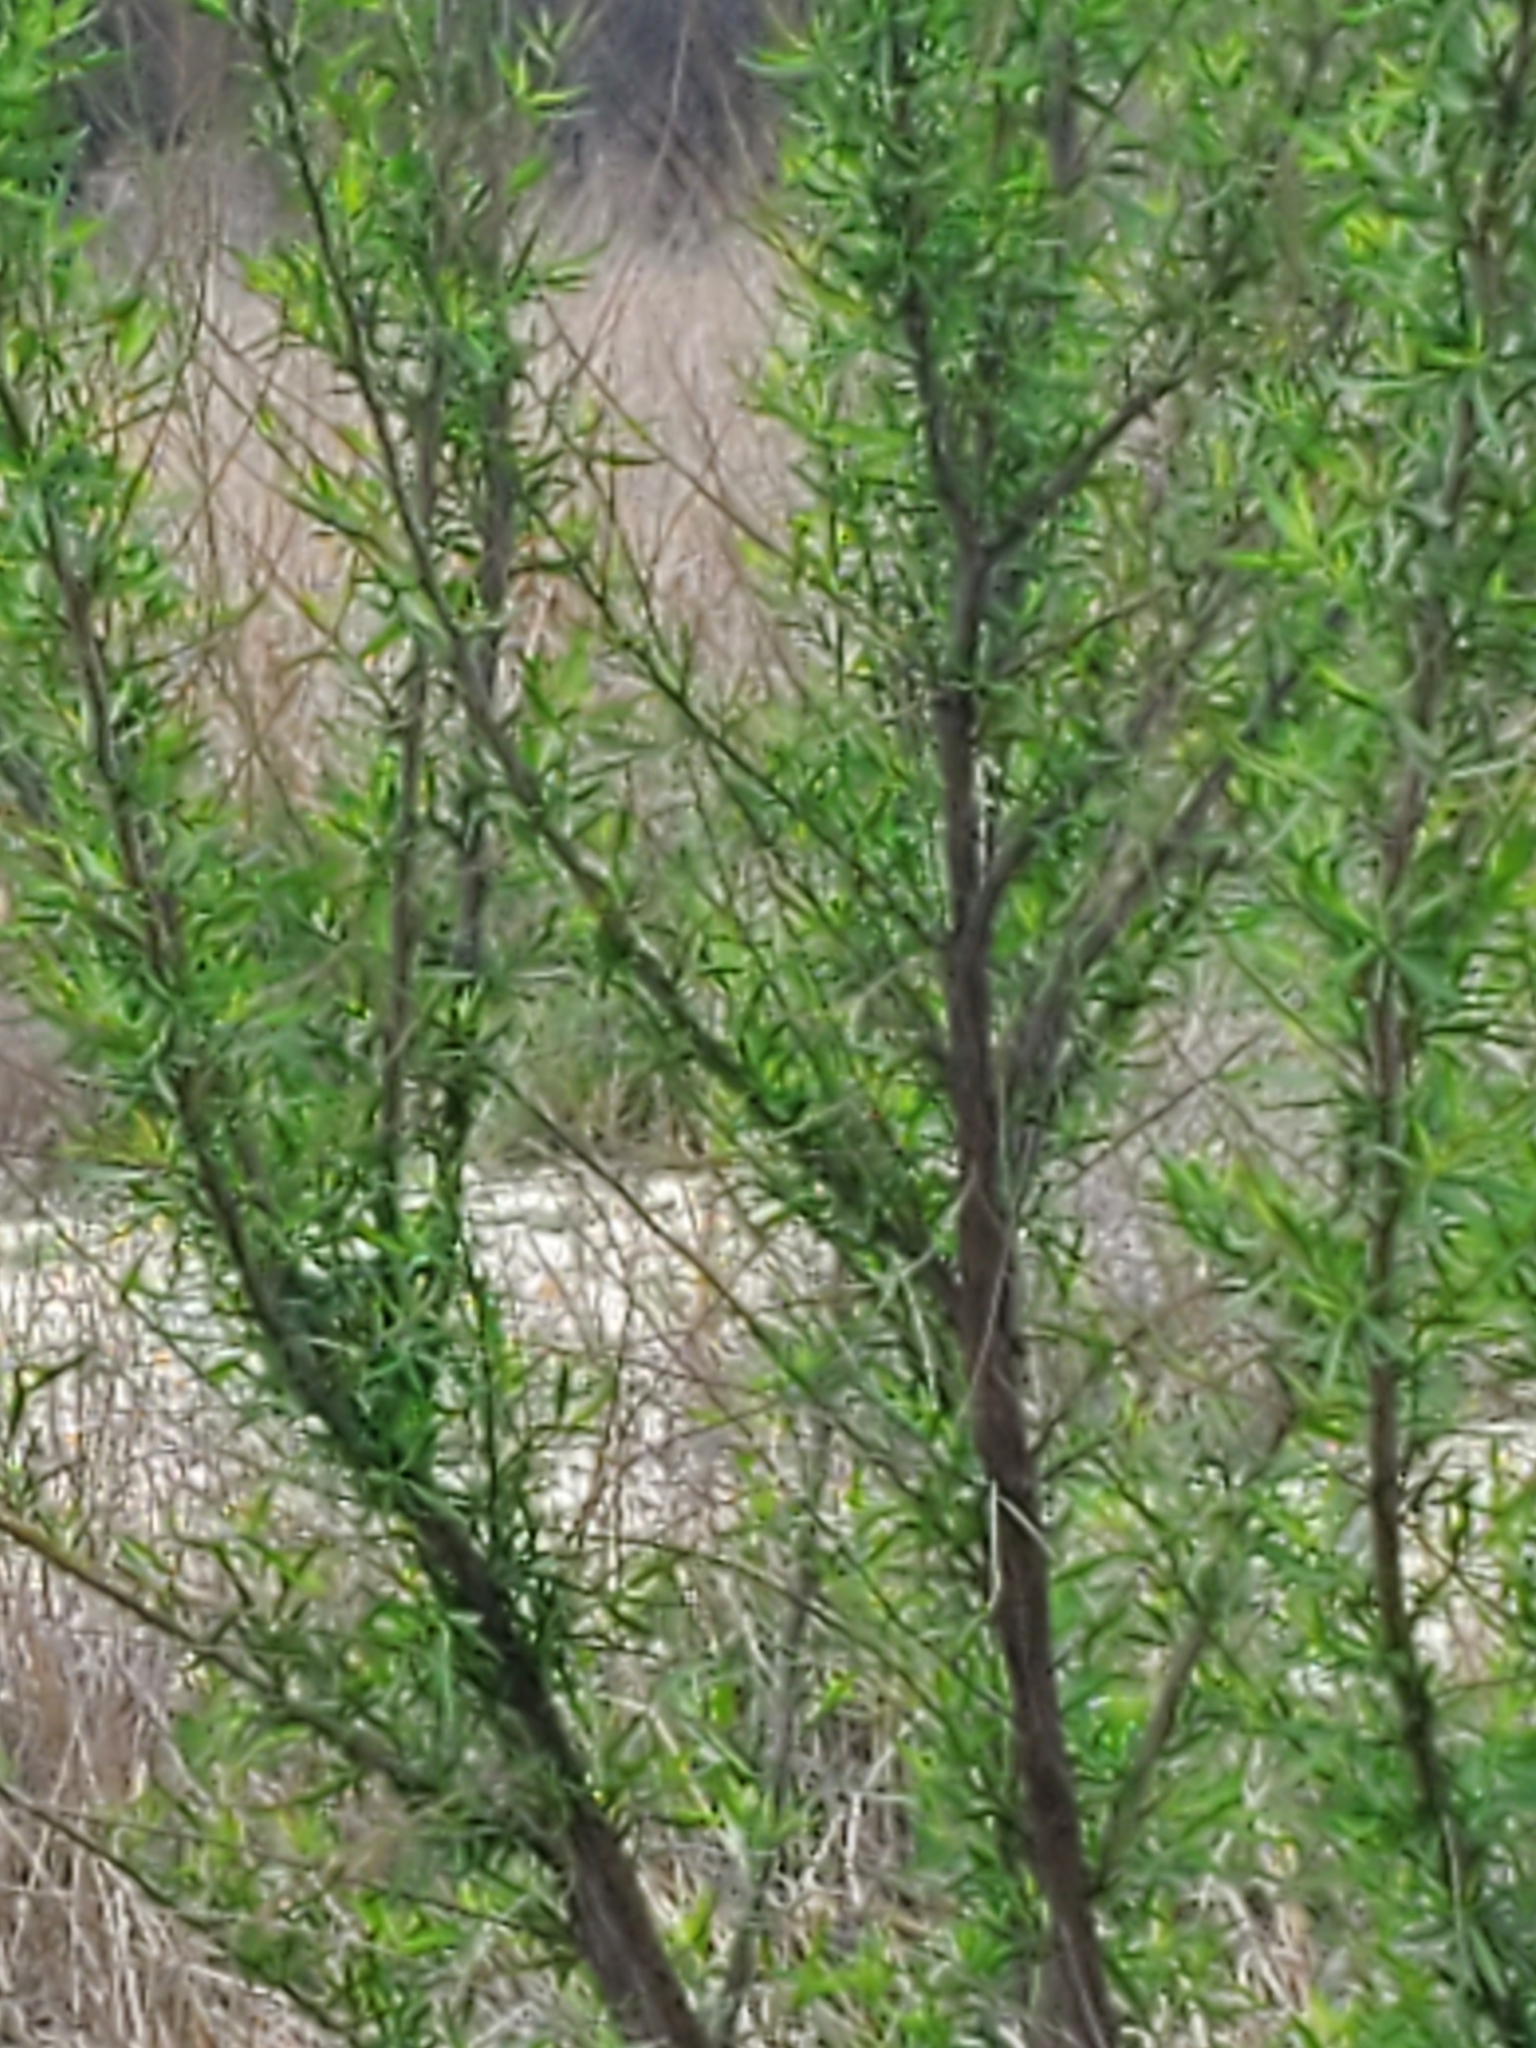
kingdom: Plantae
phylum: Tracheophyta
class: Magnoliopsida
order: Asterales
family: Asteraceae
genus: Baccharis
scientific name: Baccharis neglecta
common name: Roosevelt-weed
